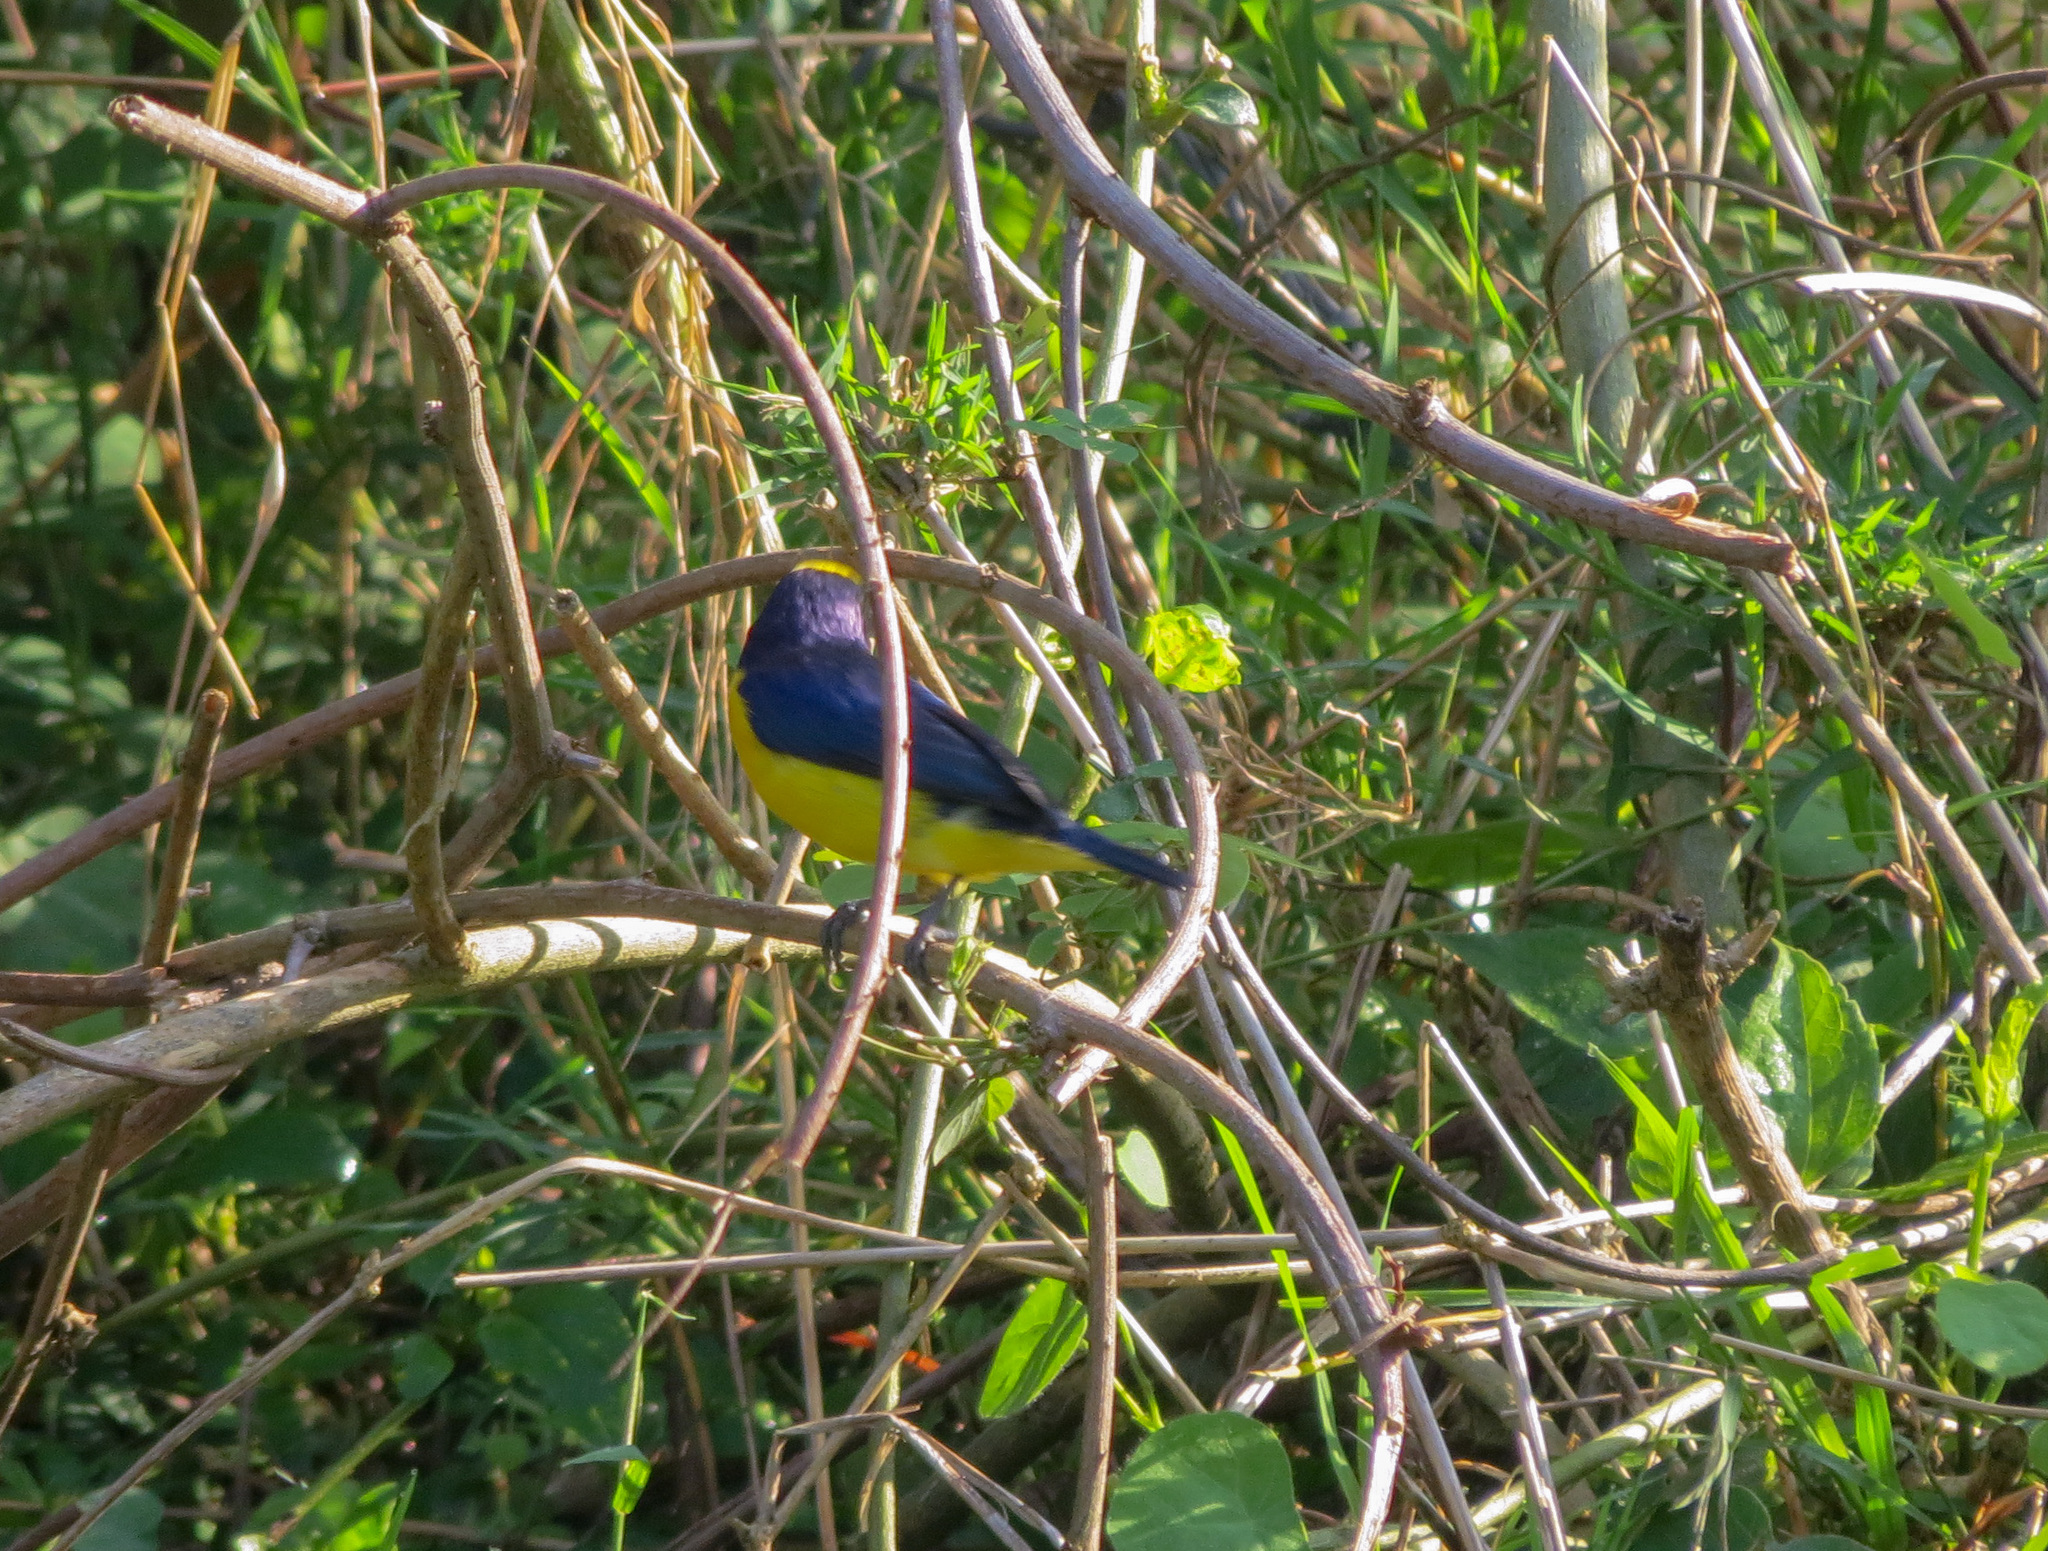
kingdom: Animalia
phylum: Chordata
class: Aves
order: Passeriformes
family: Fringillidae
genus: Euphonia
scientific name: Euphonia laniirostris
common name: Thick-billed euphonia
